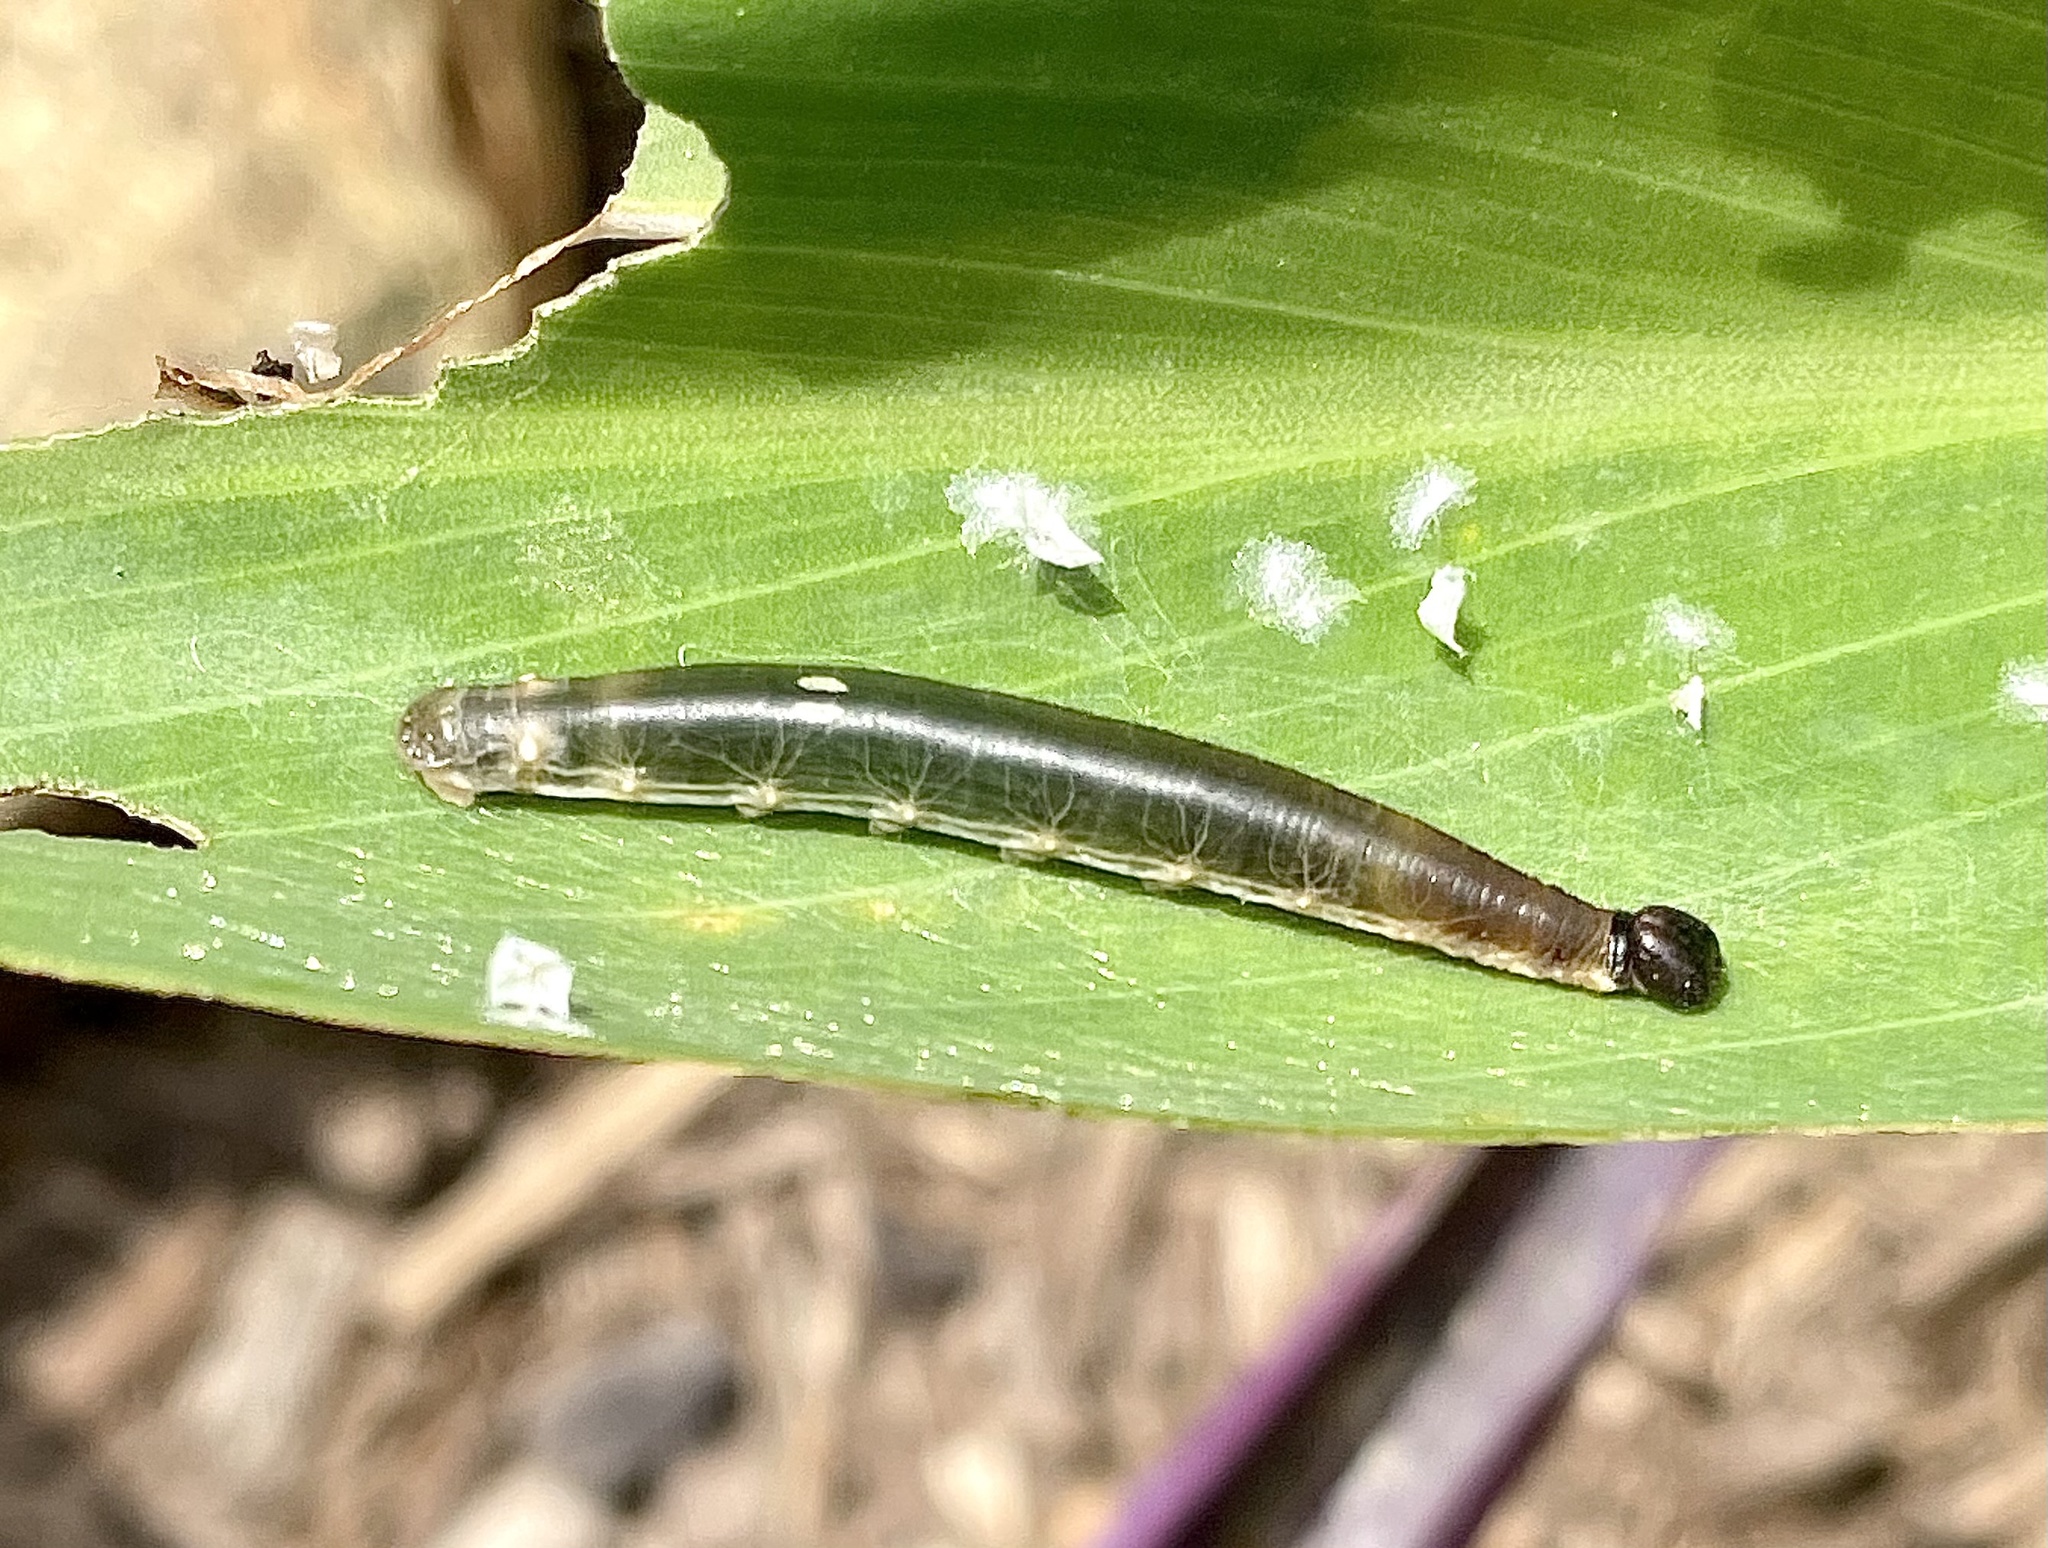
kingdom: Animalia
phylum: Arthropoda
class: Insecta
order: Lepidoptera
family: Hesperiidae
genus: Calpodes
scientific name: Calpodes ethlius
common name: Brazilian skipper
